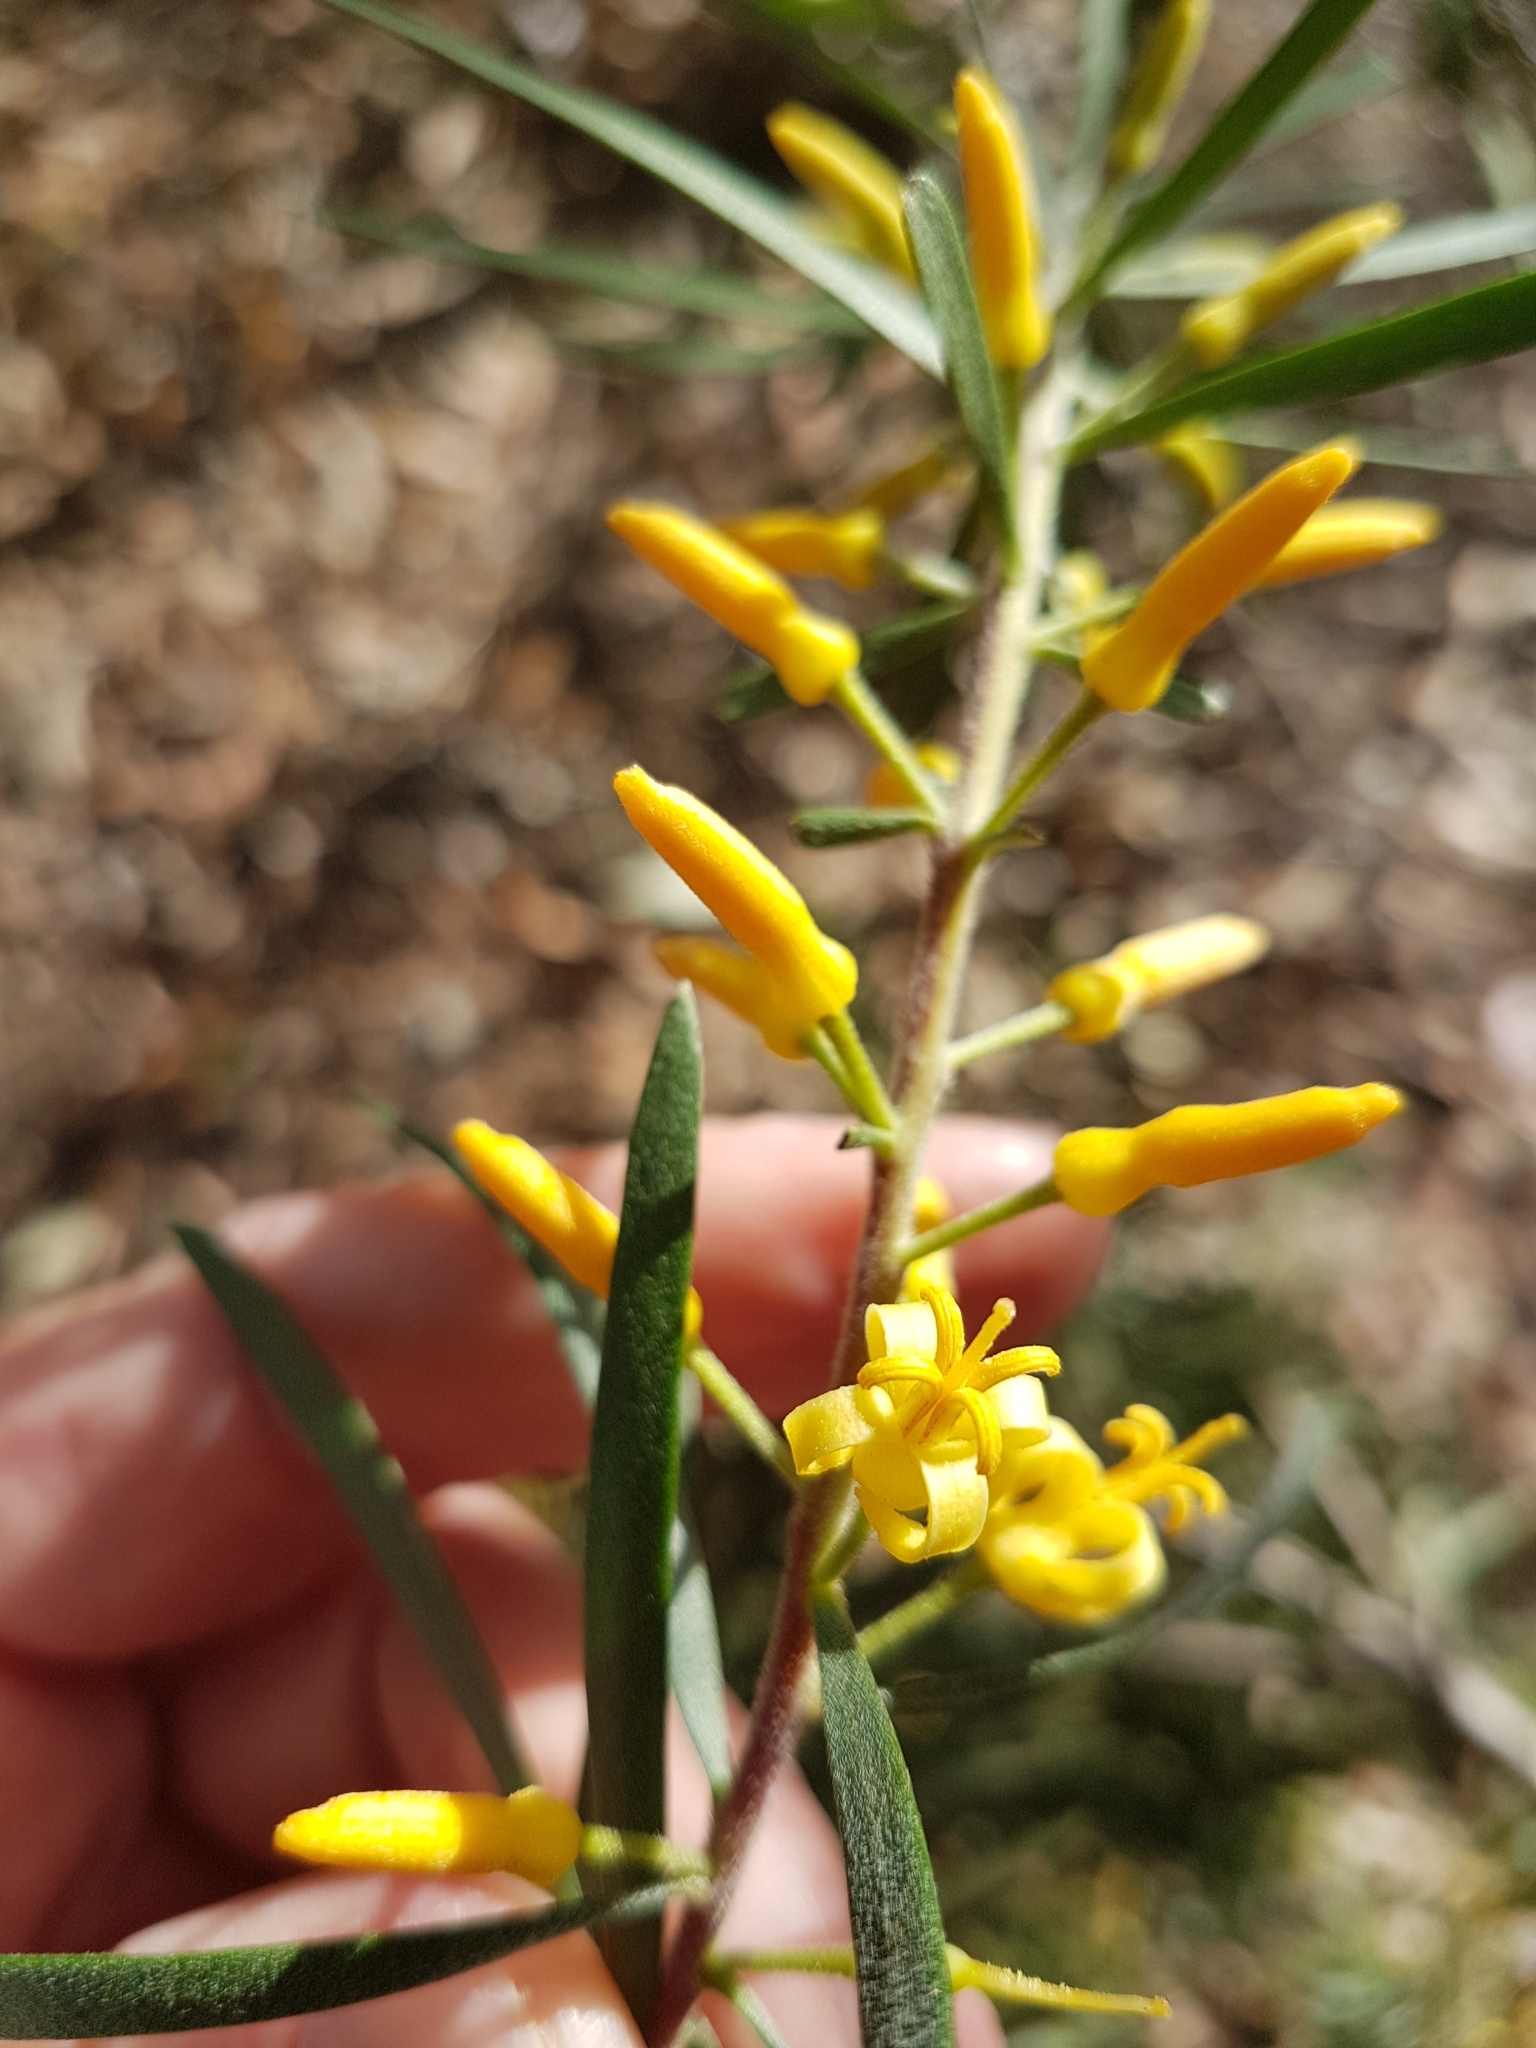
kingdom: Plantae
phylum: Tracheophyta
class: Magnoliopsida
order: Proteales
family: Proteaceae
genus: Persoonia
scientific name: Persoonia linearis
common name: Narrow-leaf geebung
